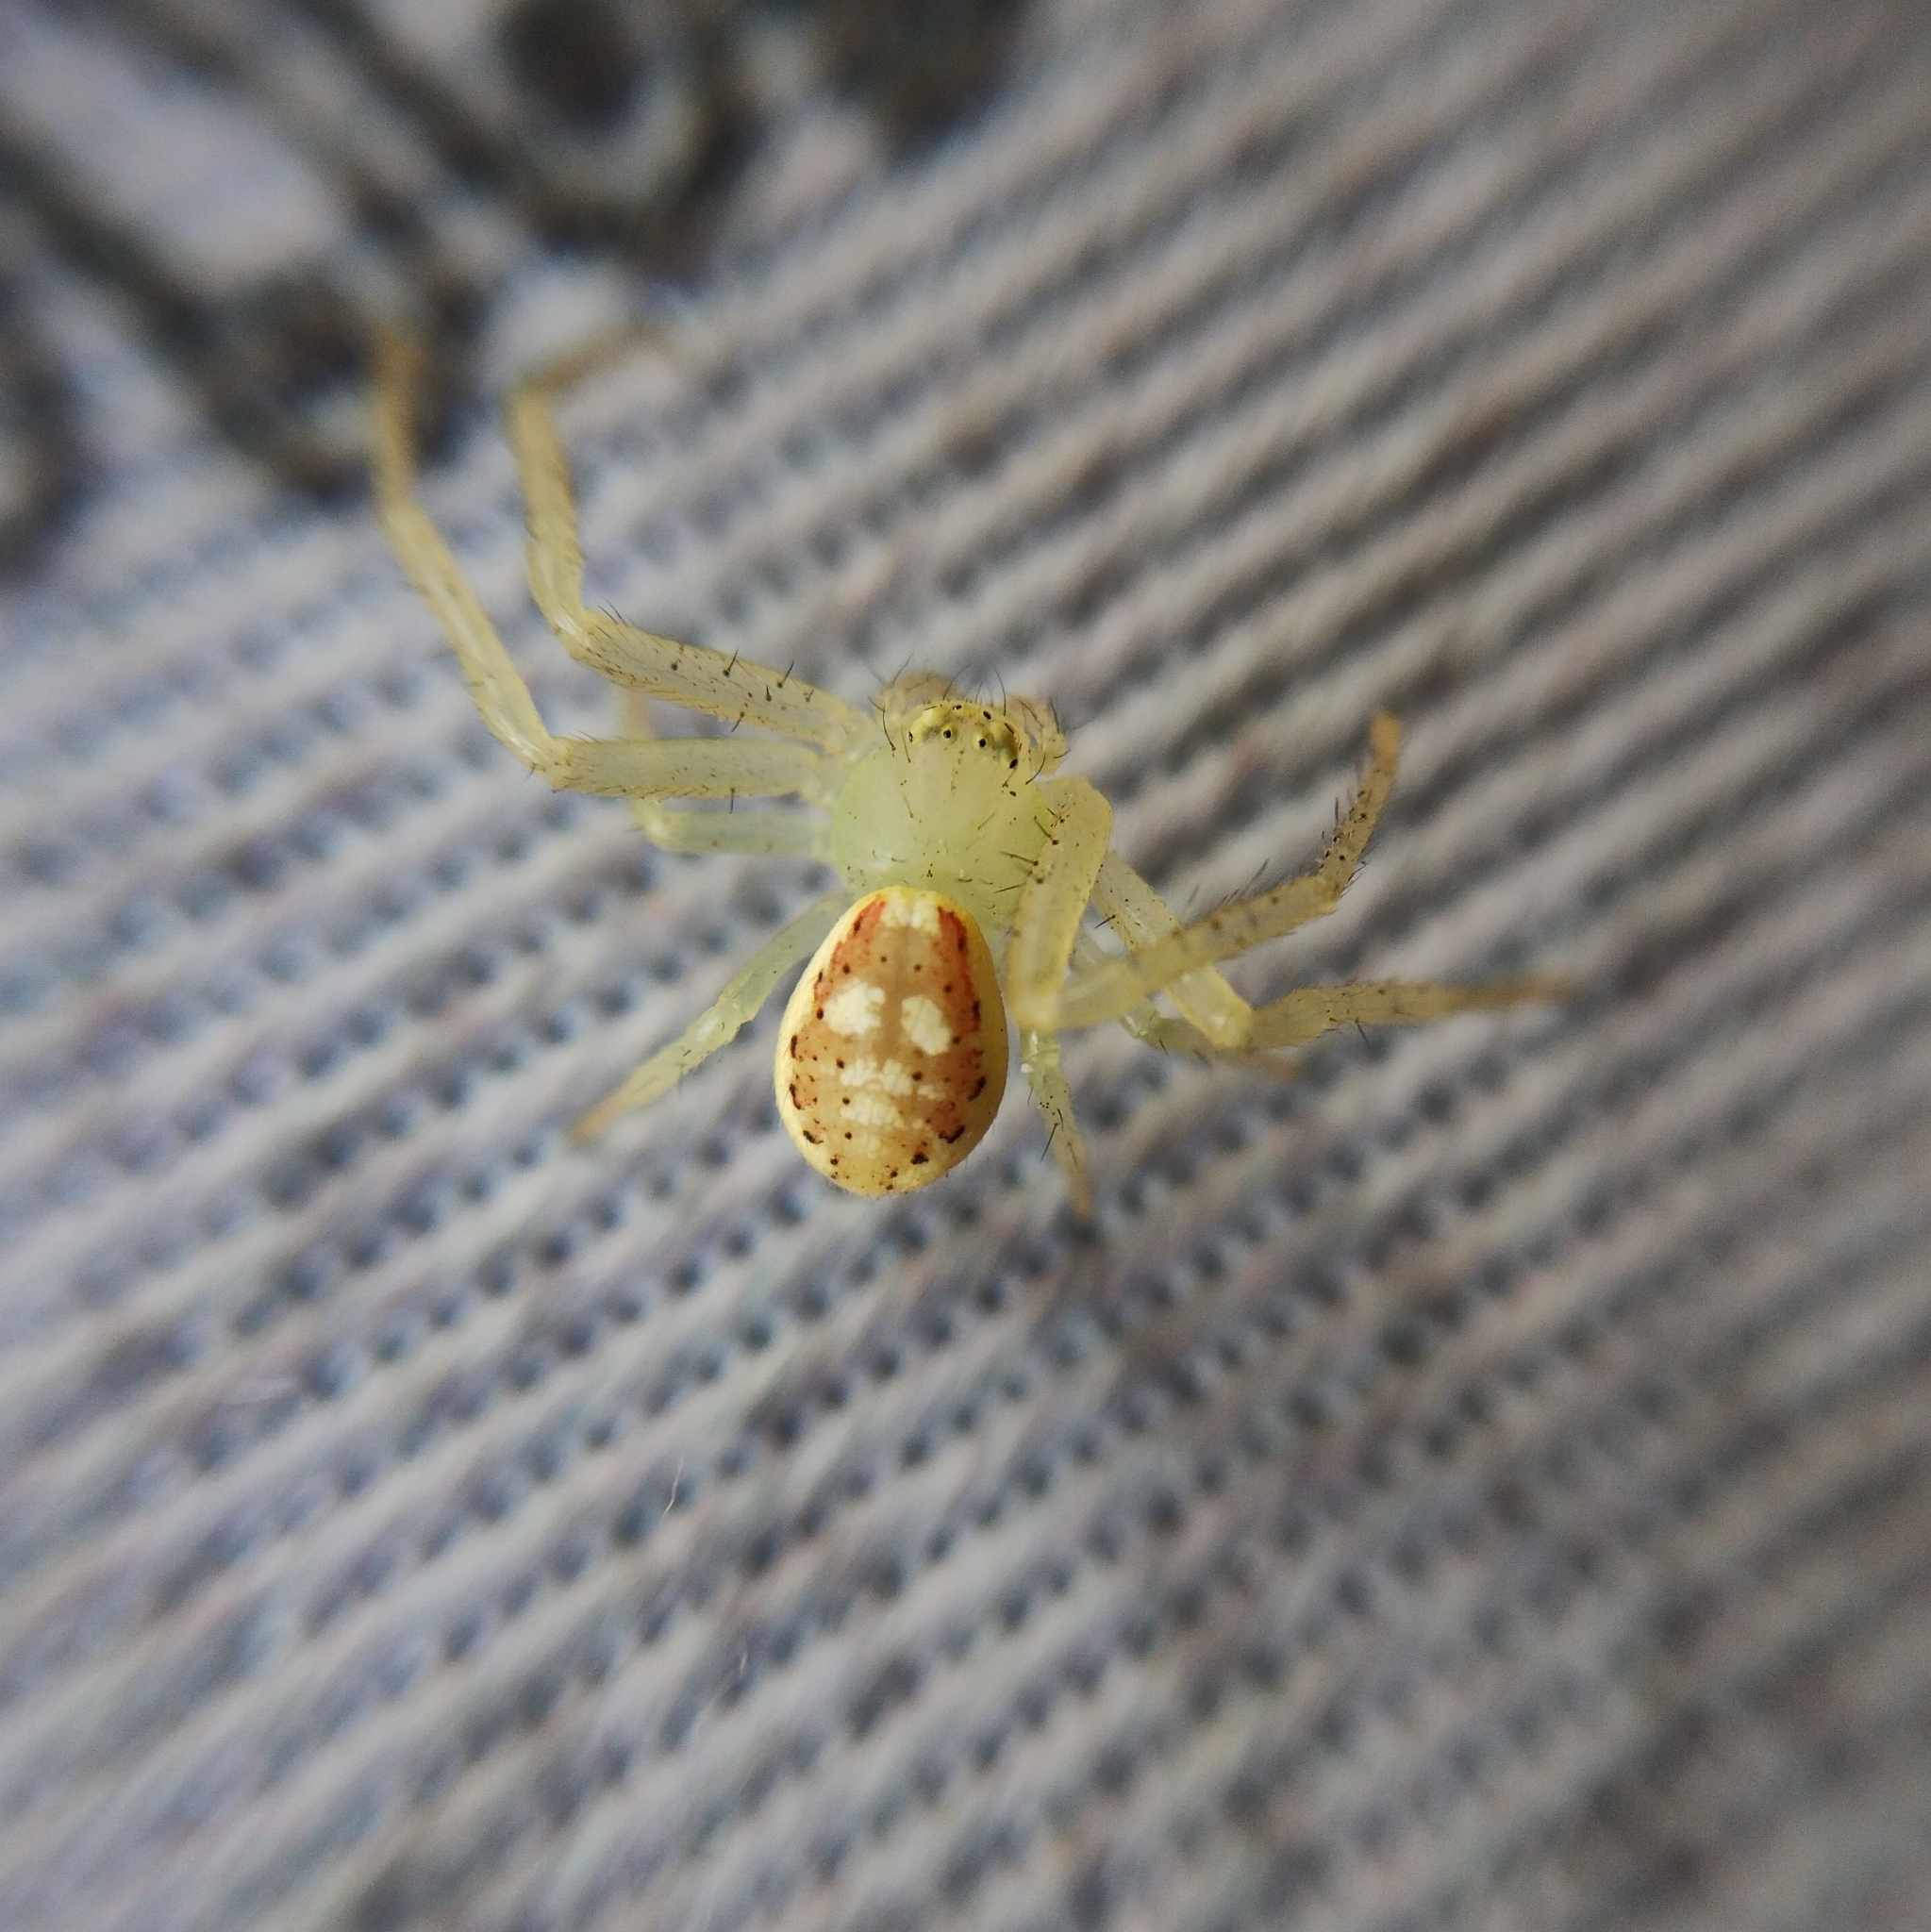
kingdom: Animalia
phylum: Arthropoda
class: Arachnida
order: Araneae
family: Thomisidae
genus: Diaea
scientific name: Diaea livens
